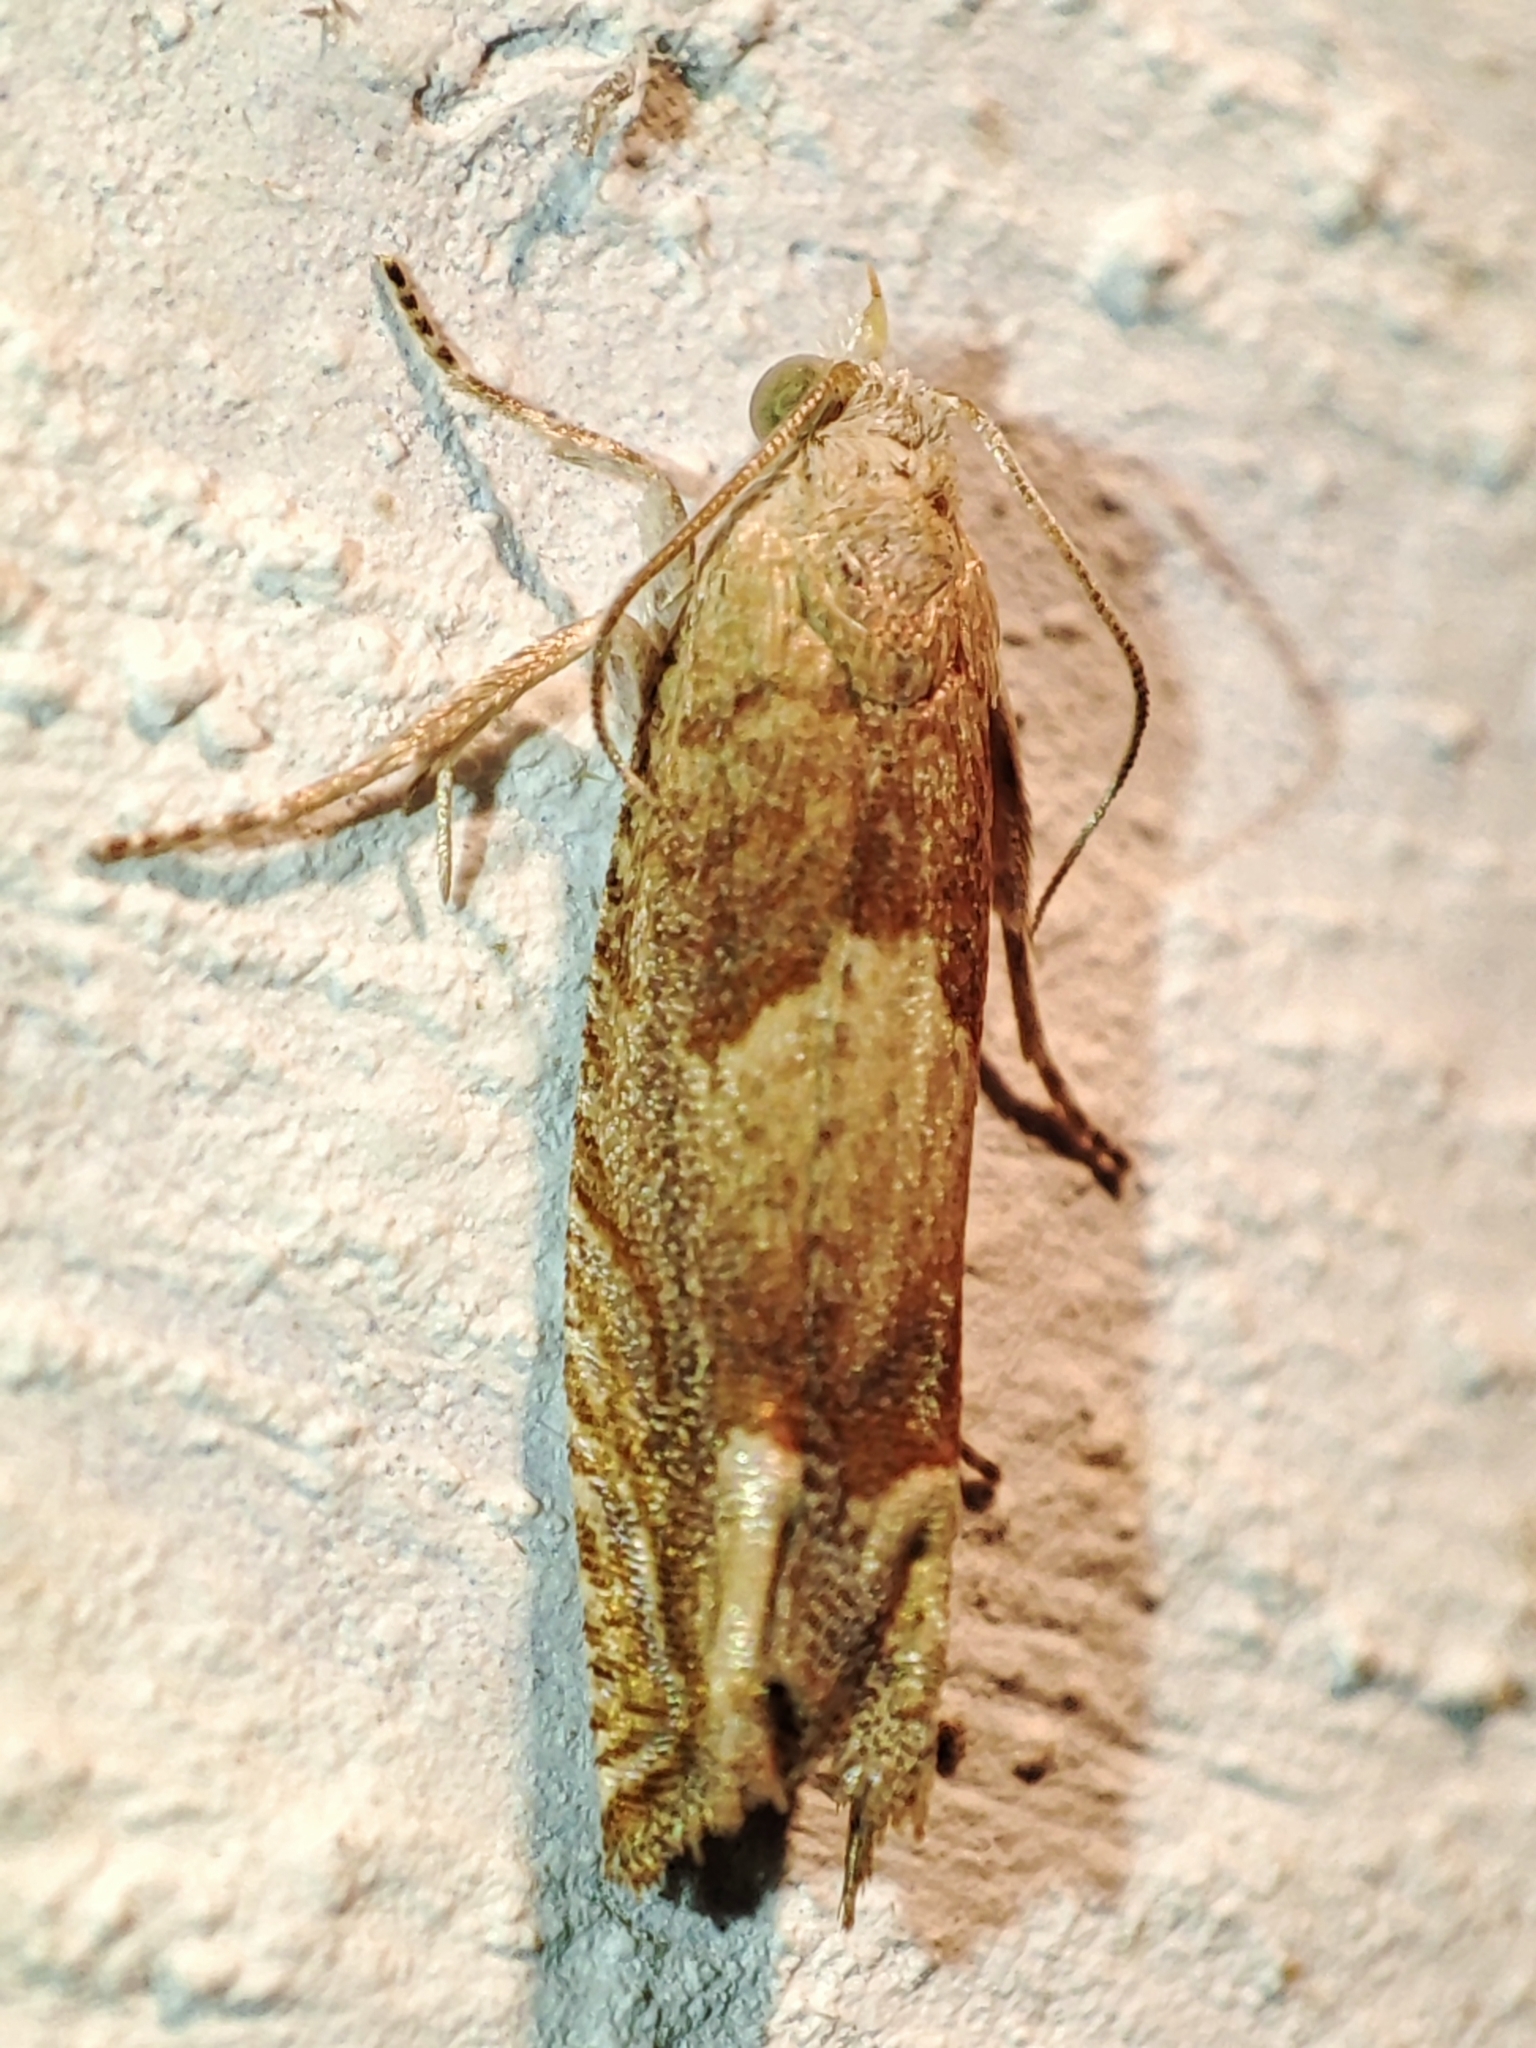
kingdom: Animalia
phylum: Arthropoda
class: Insecta
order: Lepidoptera
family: Tortricidae
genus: Eucosma
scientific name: Eucosma conterminana
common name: Pale lettuce bell
